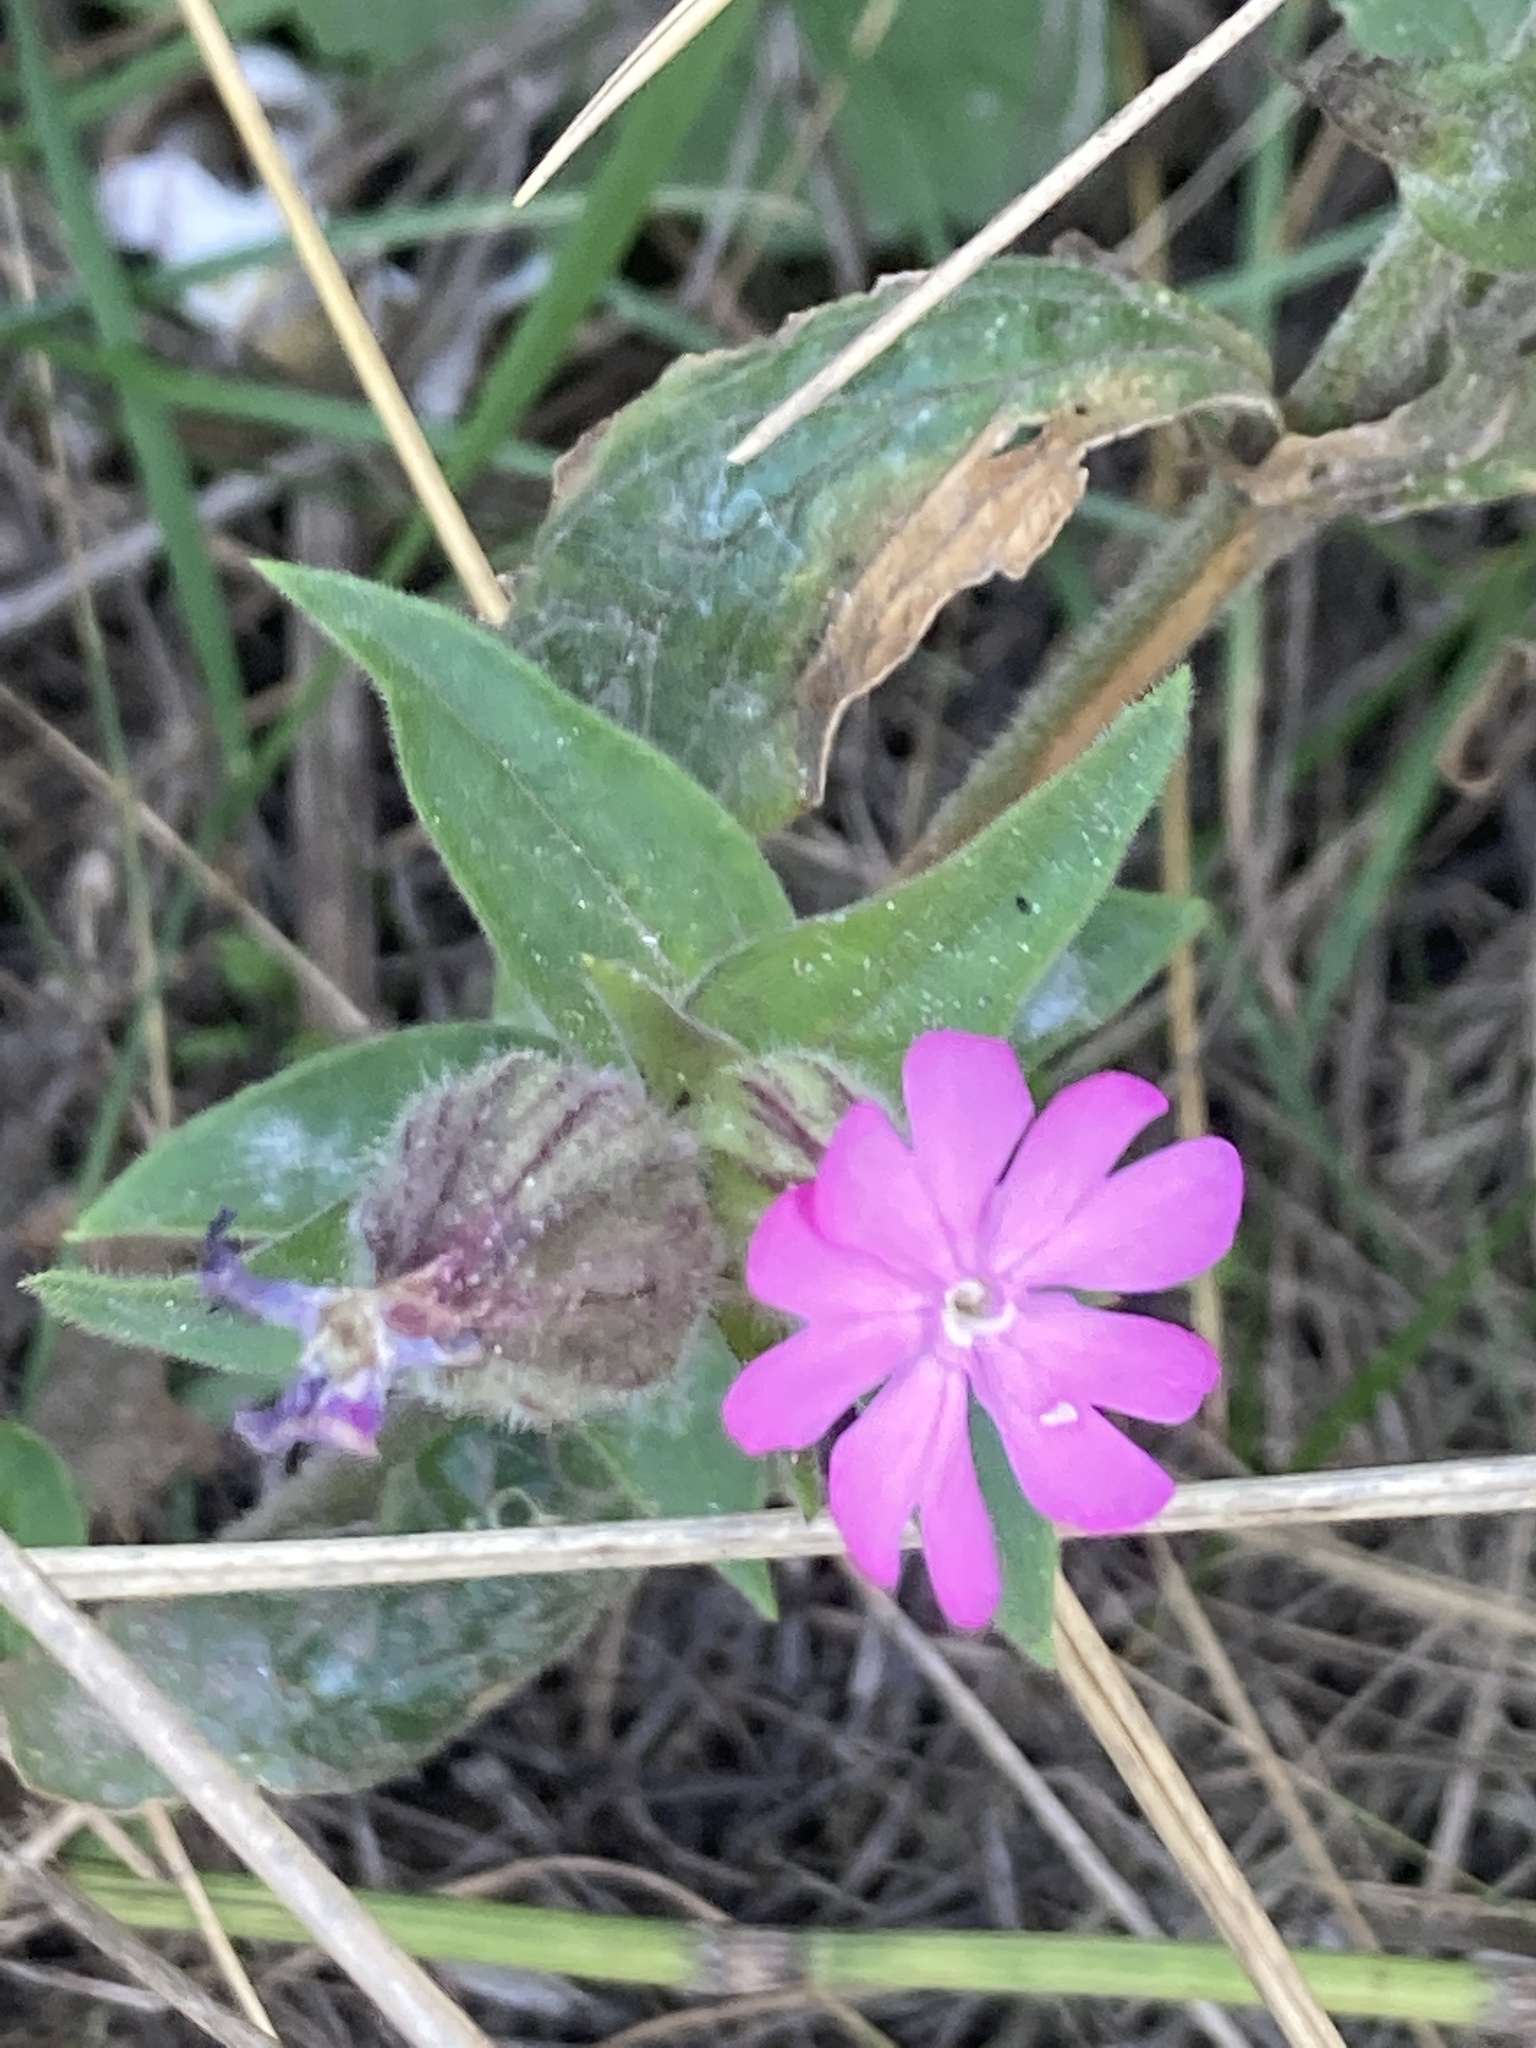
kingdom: Plantae
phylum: Tracheophyta
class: Magnoliopsida
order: Caryophyllales
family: Caryophyllaceae
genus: Silene
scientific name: Silene dioica
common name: Red campion
